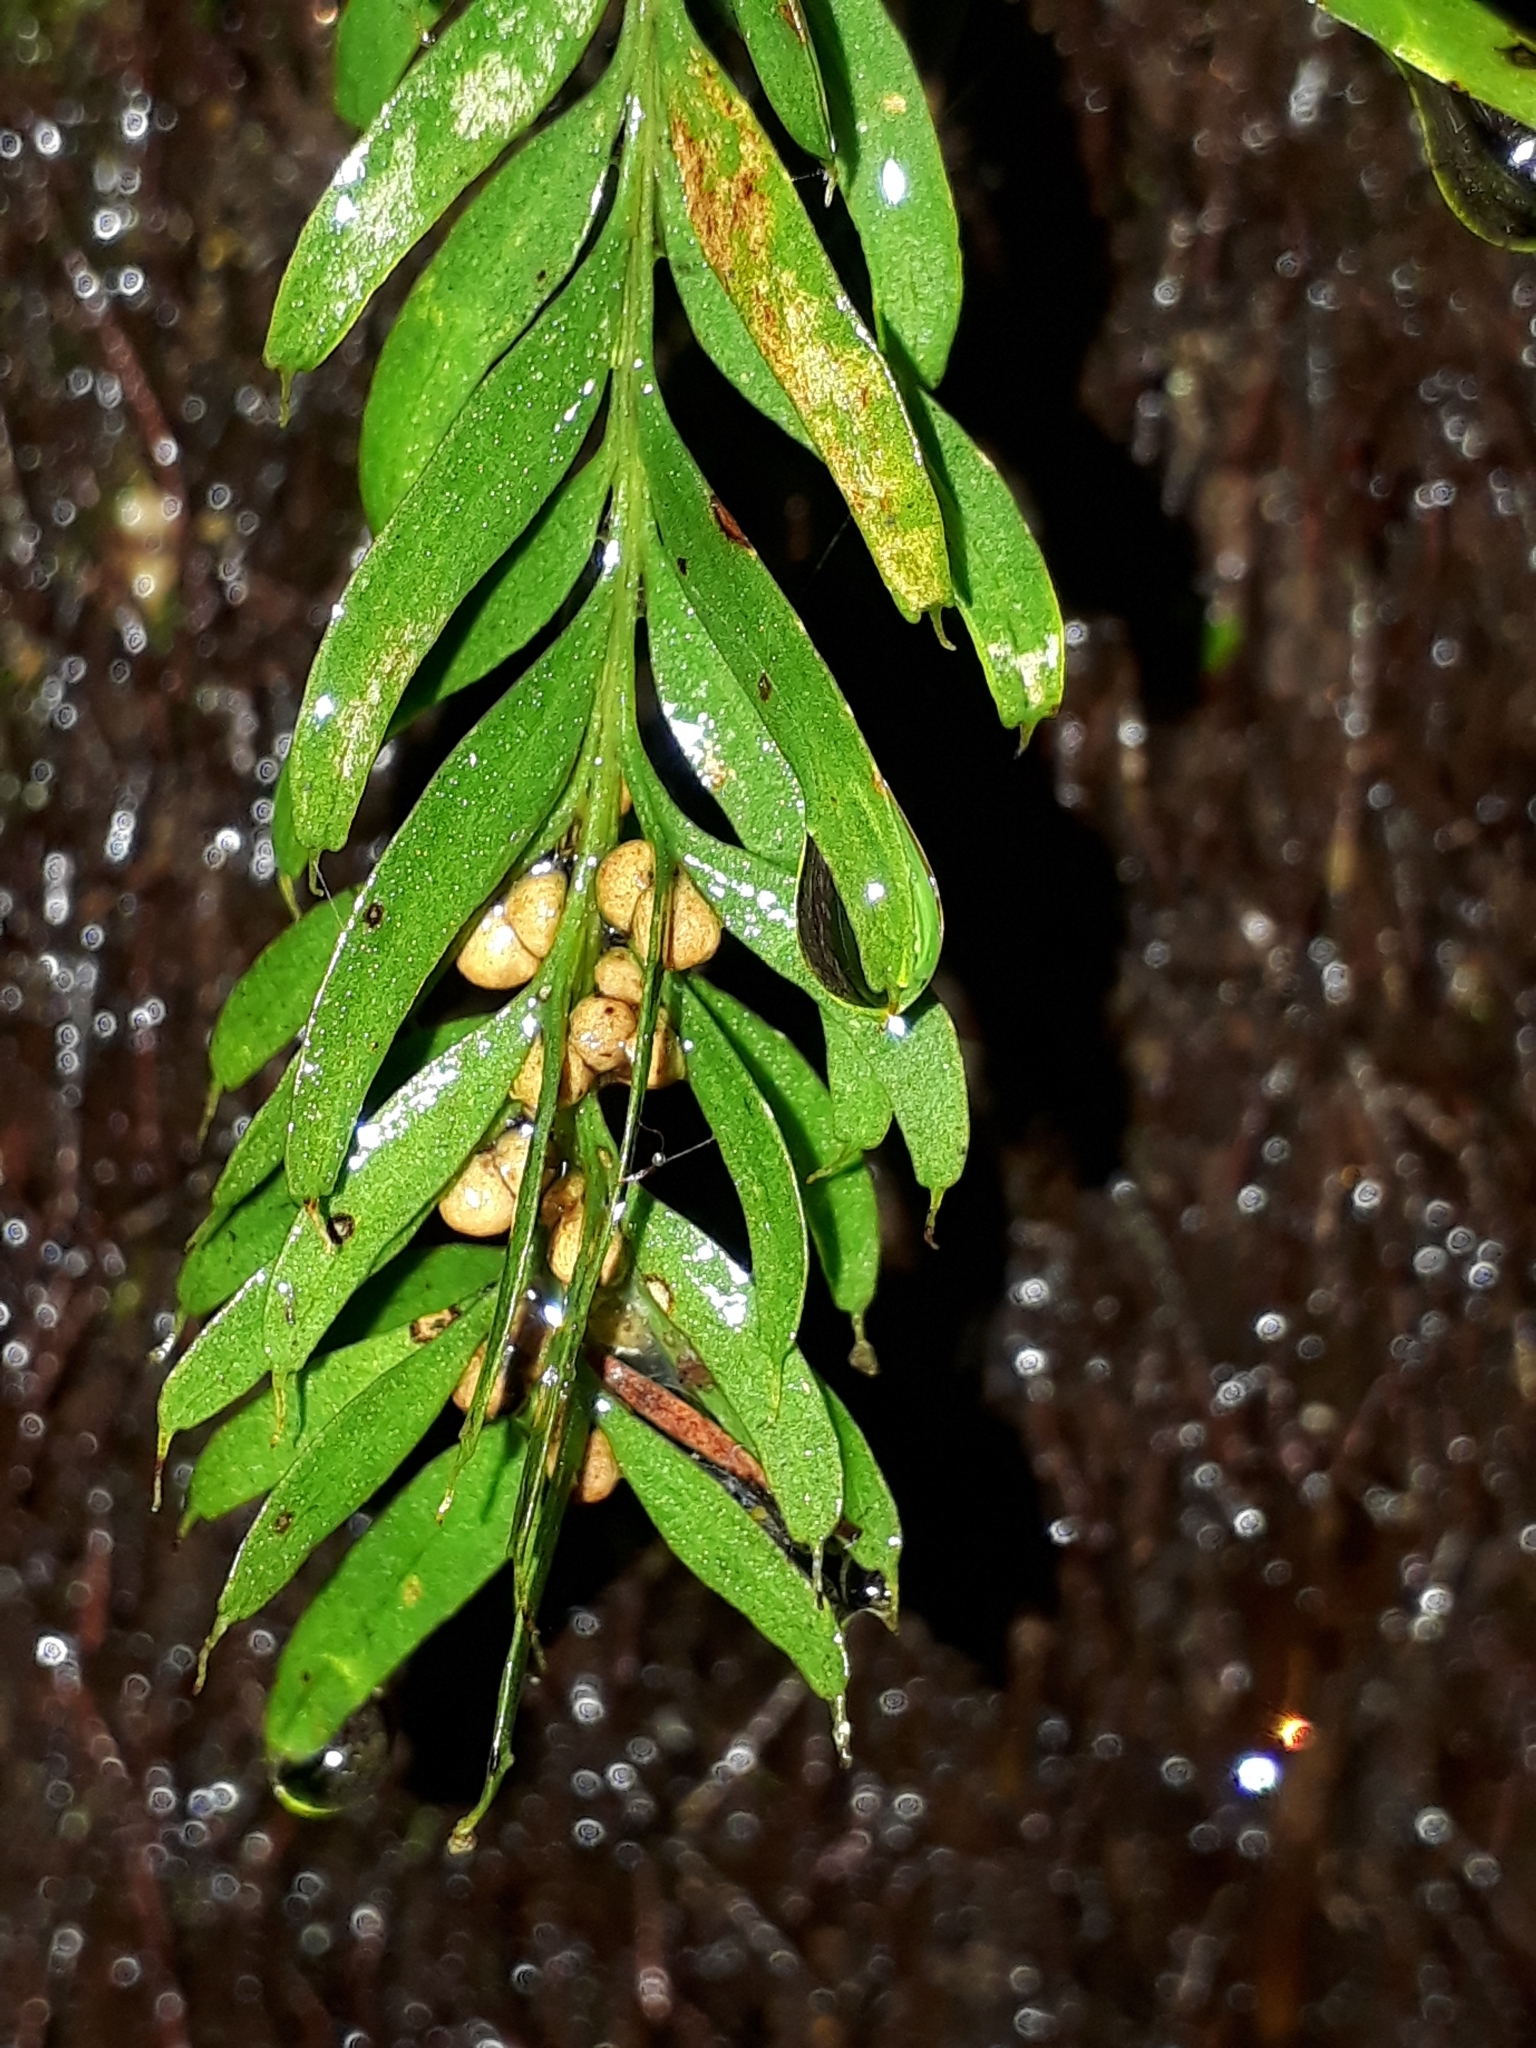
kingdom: Plantae
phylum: Tracheophyta
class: Polypodiopsida
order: Psilotales
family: Psilotaceae
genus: Tmesipteris
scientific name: Tmesipteris sigmatifolia
